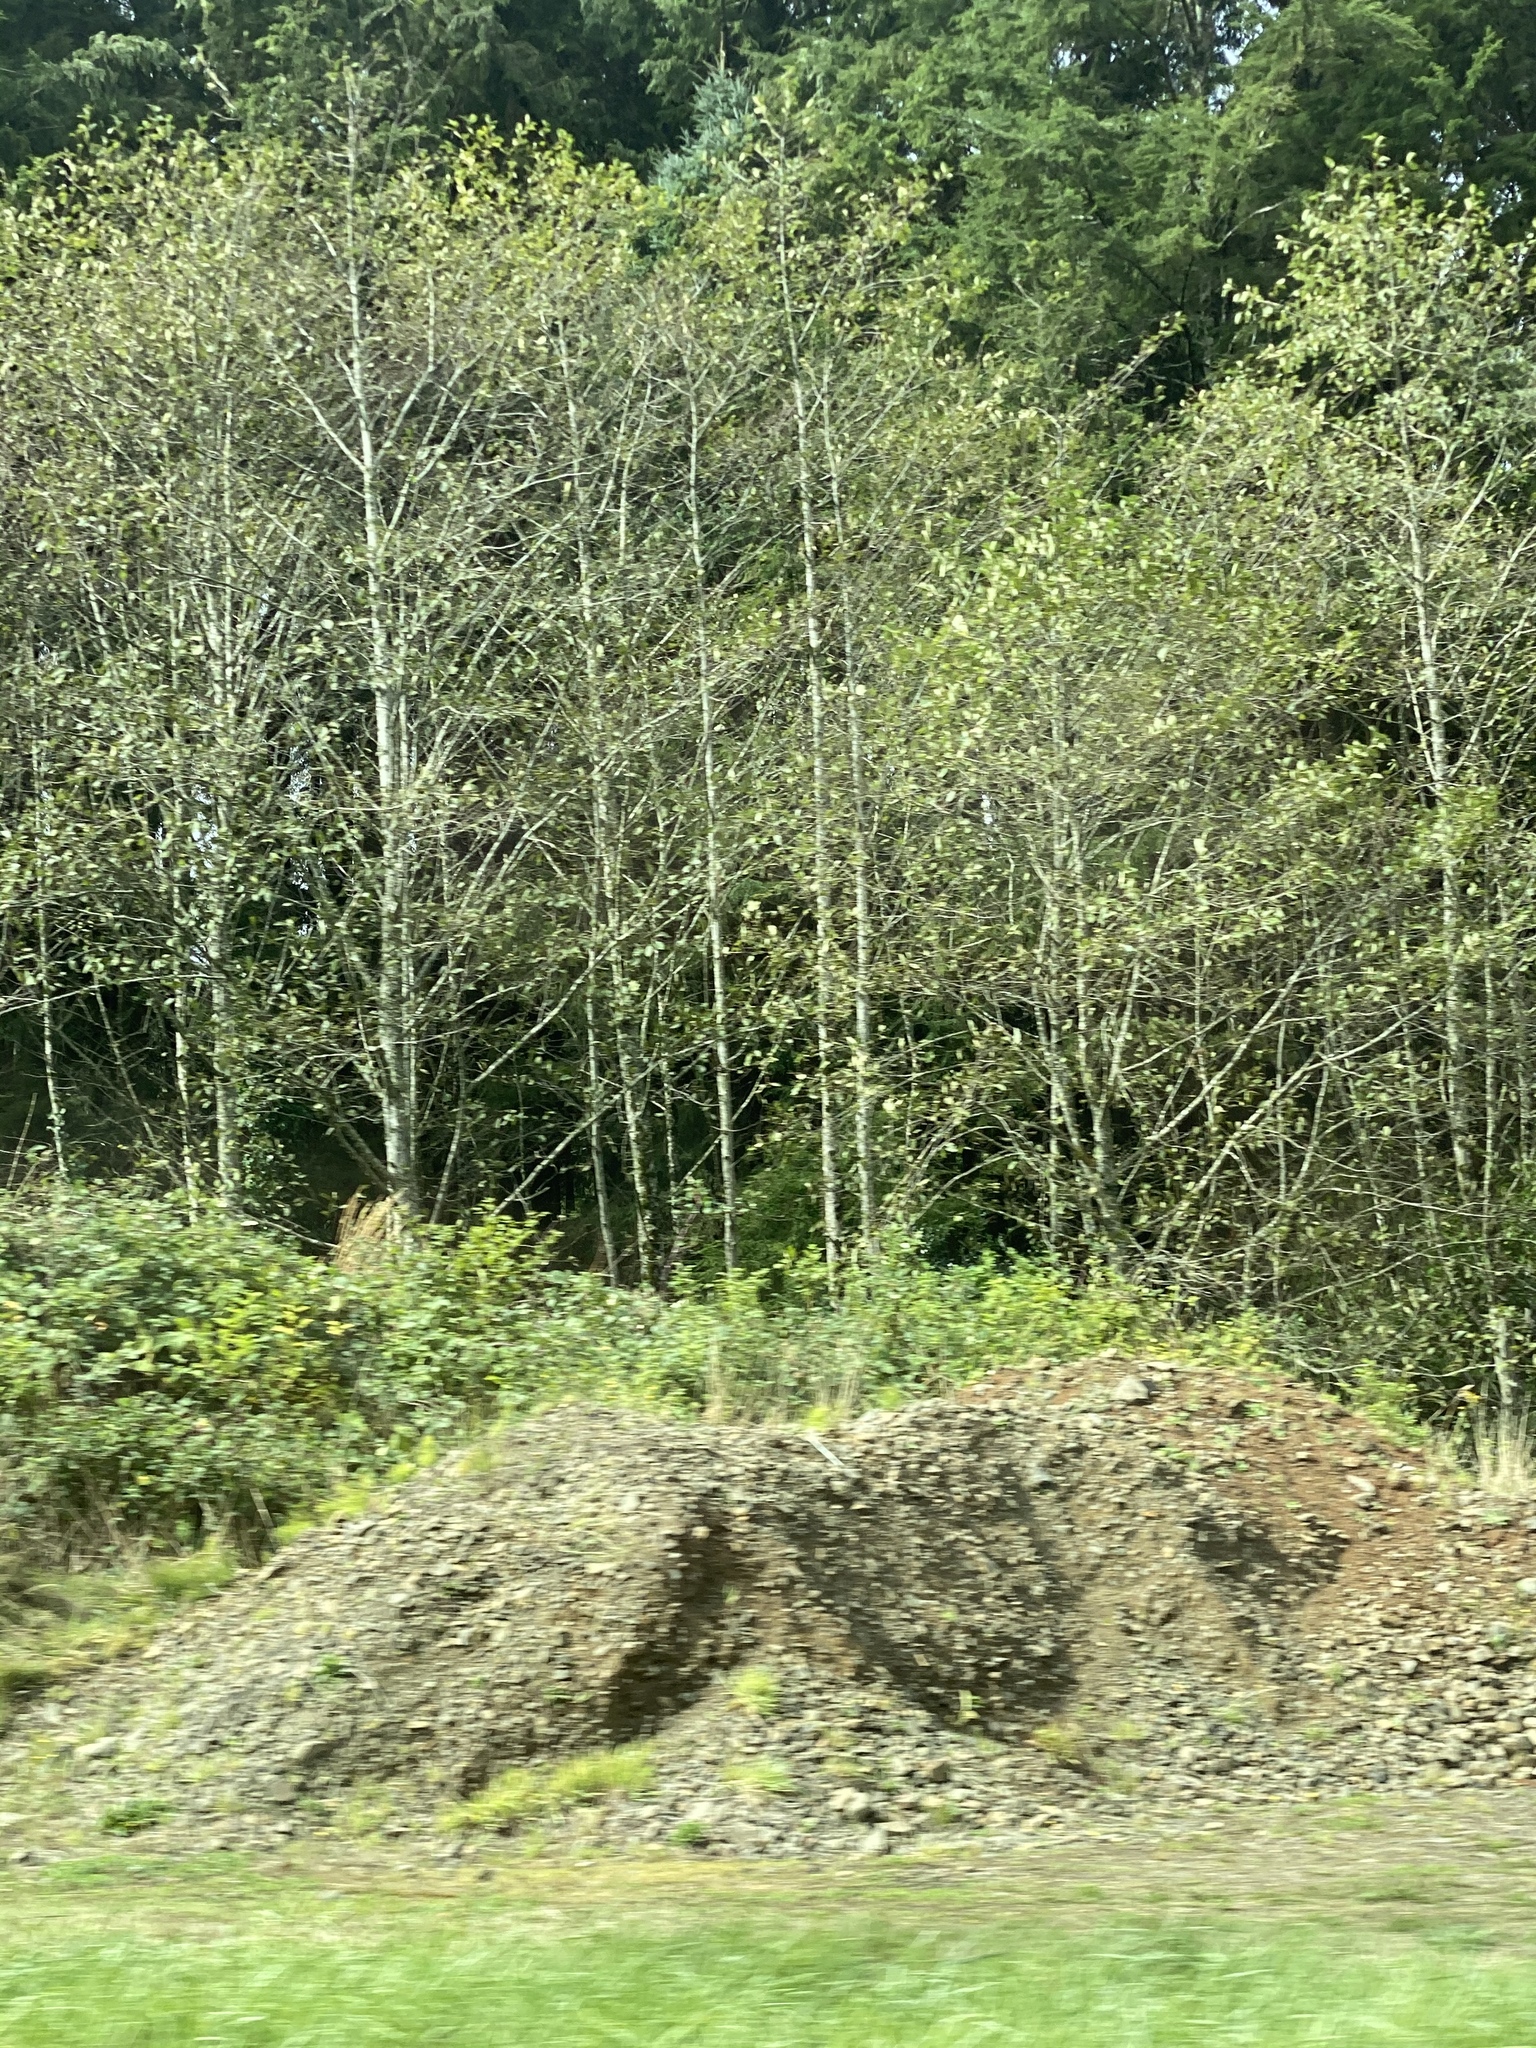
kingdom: Plantae
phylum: Tracheophyta
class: Magnoliopsida
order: Fagales
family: Betulaceae
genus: Alnus
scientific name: Alnus rubra
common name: Red alder
